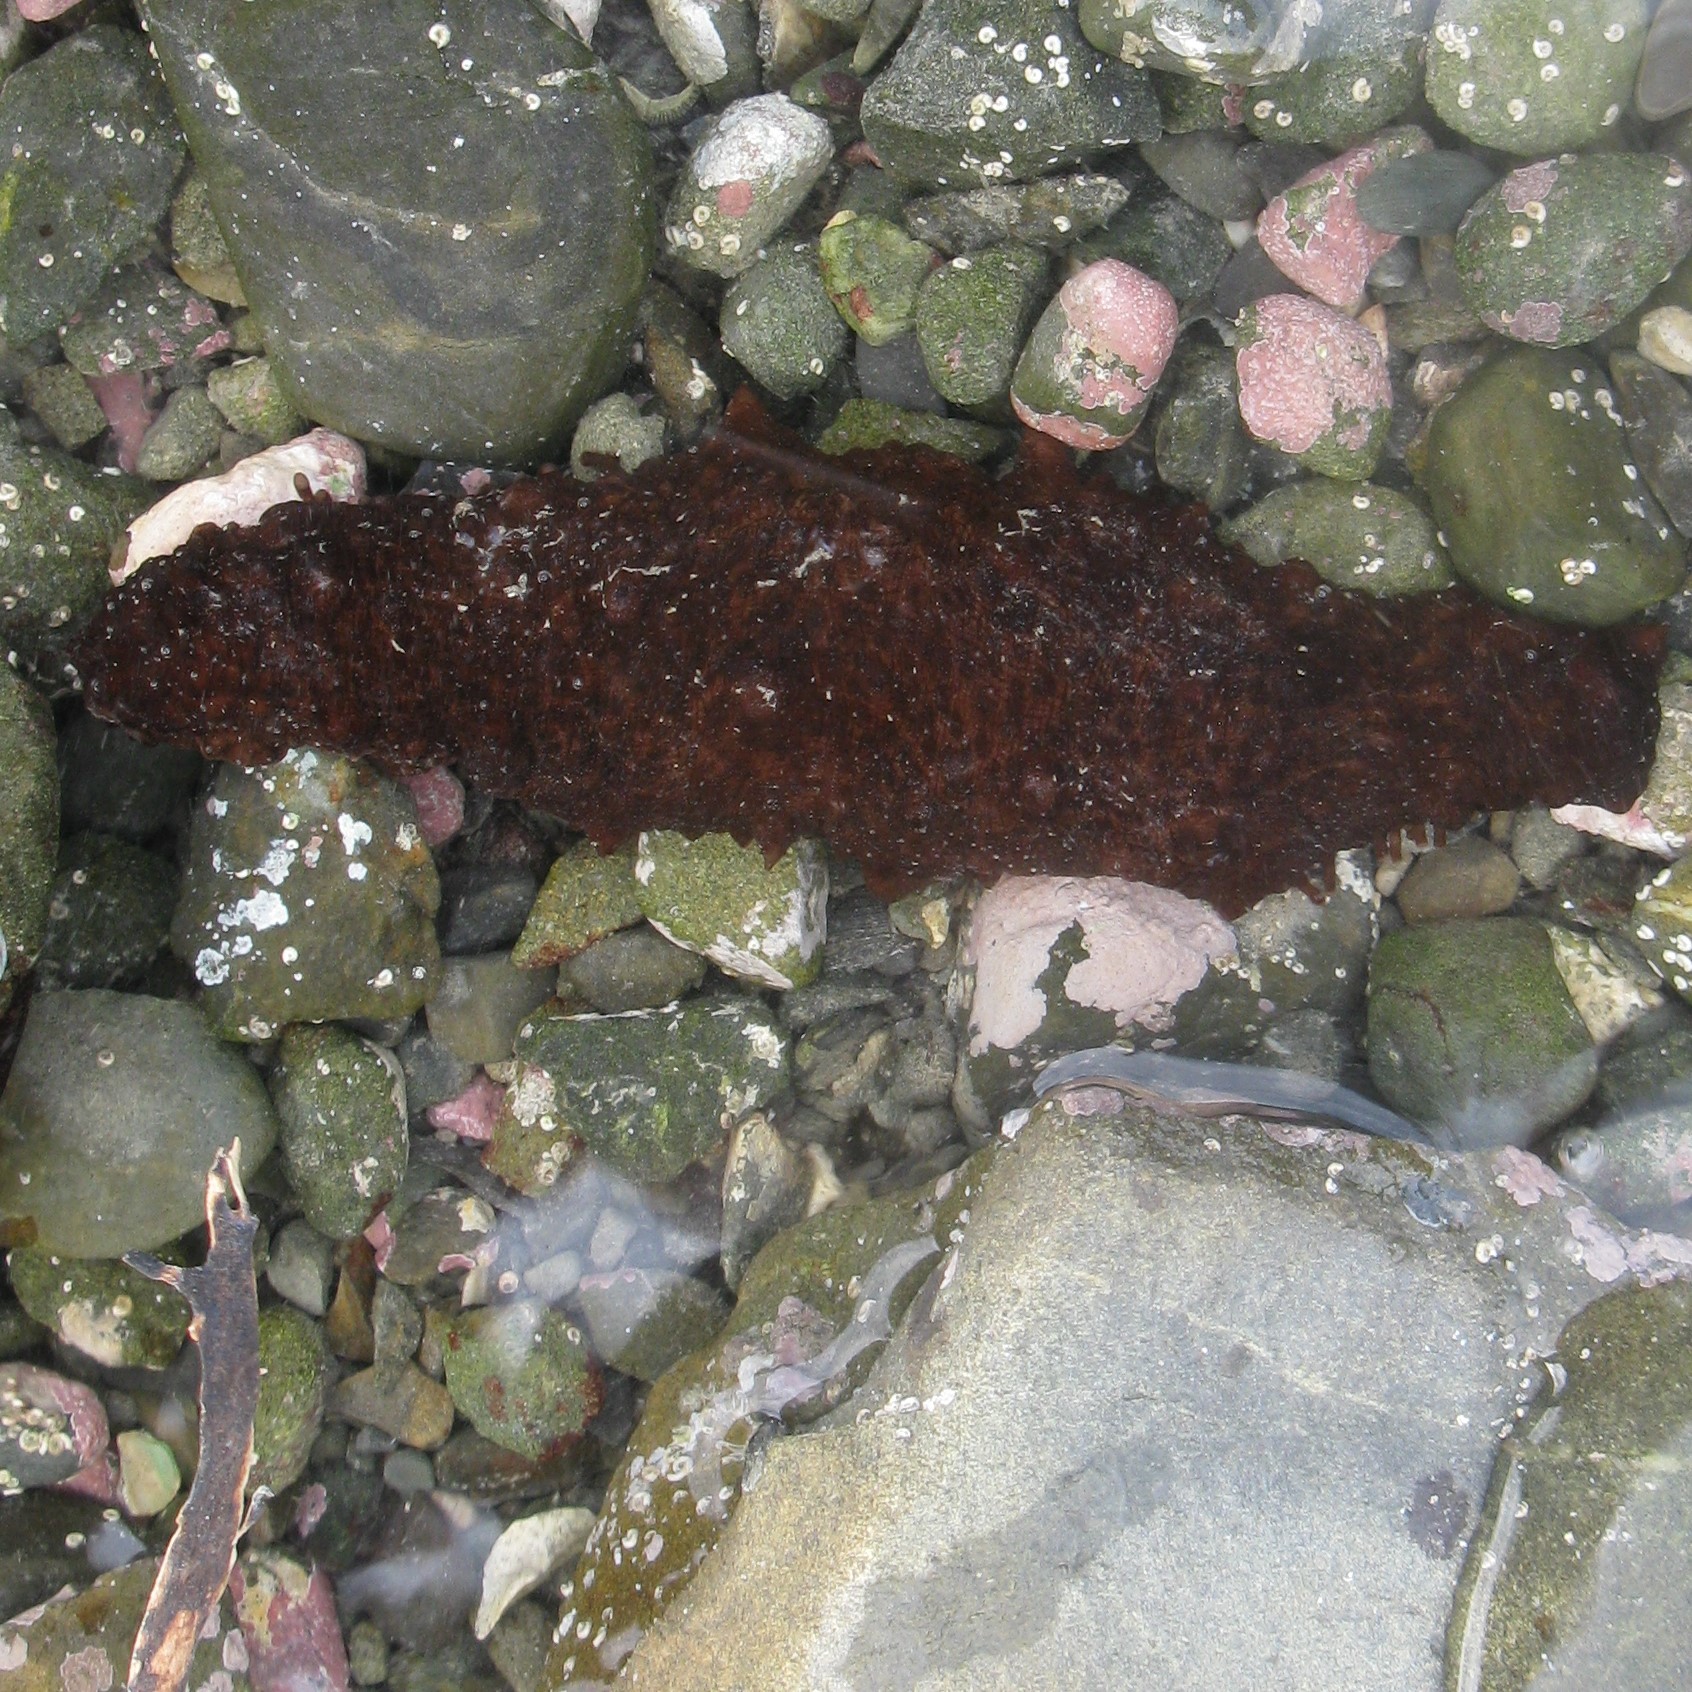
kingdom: Animalia
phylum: Echinodermata
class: Holothuroidea
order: Synallactida
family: Stichopodidae
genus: Australostichopus
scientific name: Australostichopus mollis
